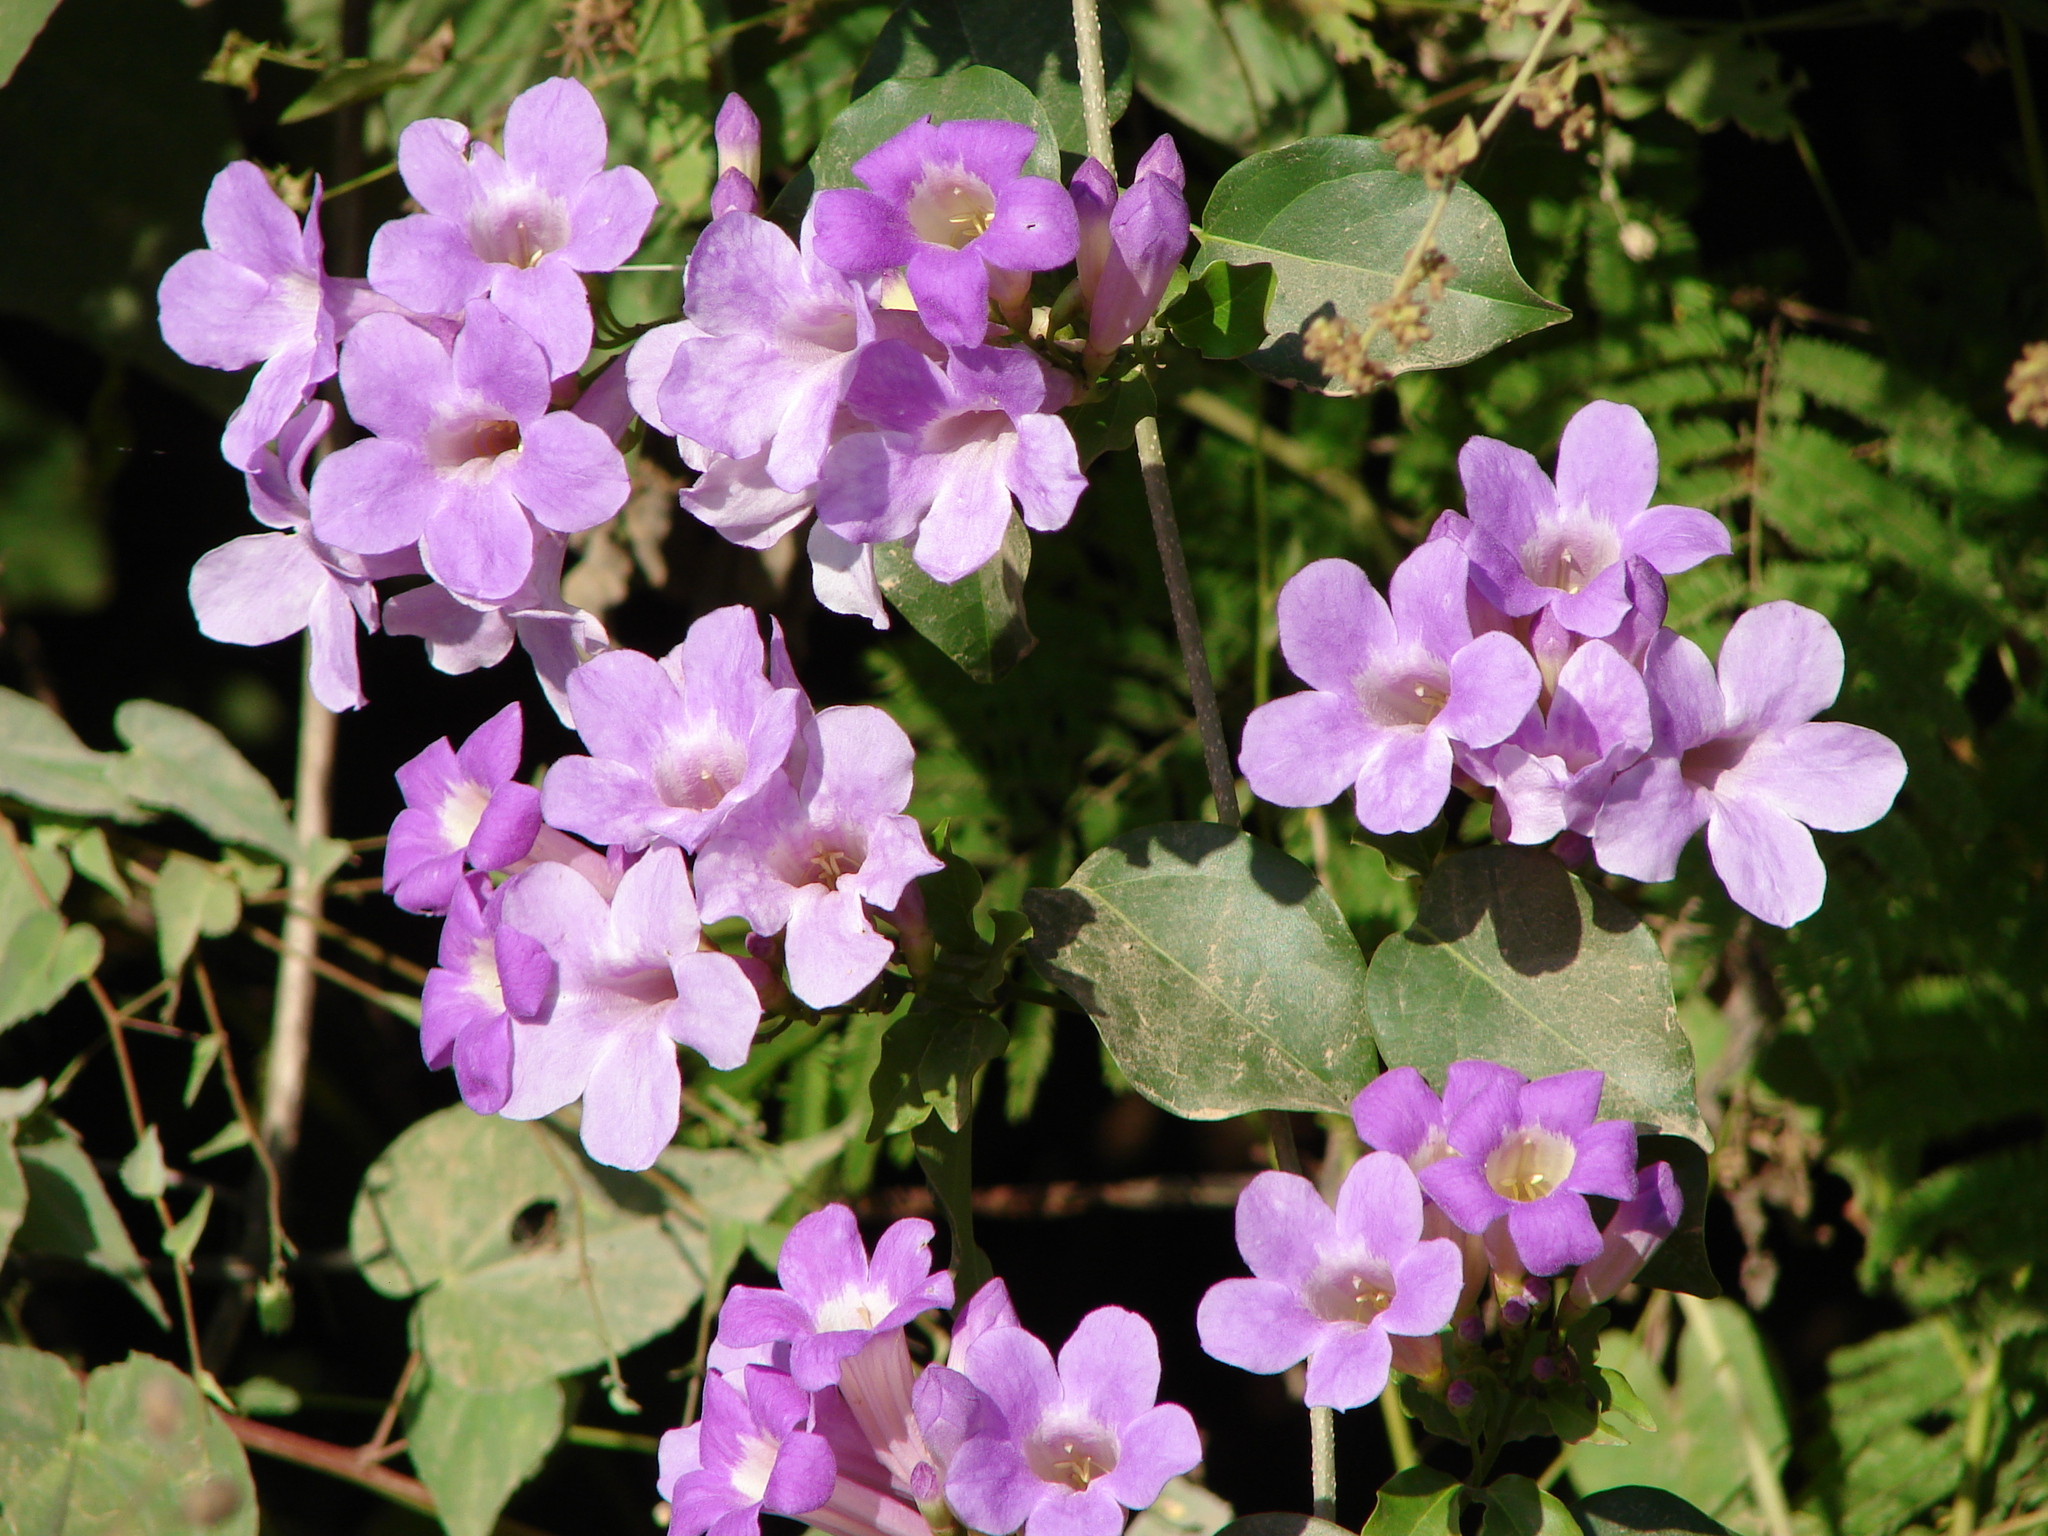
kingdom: Plantae
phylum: Tracheophyta
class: Magnoliopsida
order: Lamiales
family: Bignoniaceae
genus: Mansoa
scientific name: Mansoa hymenaea
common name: Membranous garlic vine
